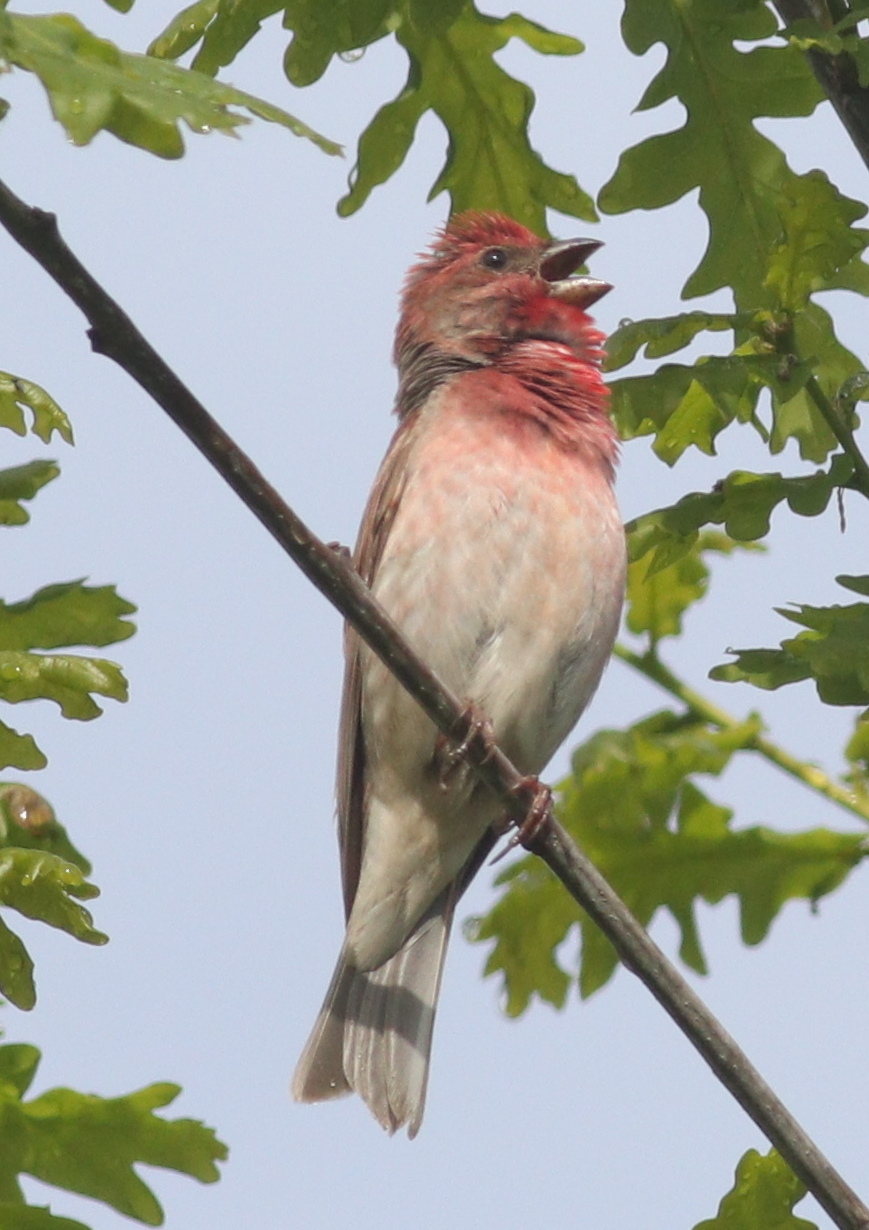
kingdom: Animalia
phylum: Chordata
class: Aves
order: Passeriformes
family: Fringillidae
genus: Carpodacus
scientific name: Carpodacus erythrinus
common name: Common rosefinch
